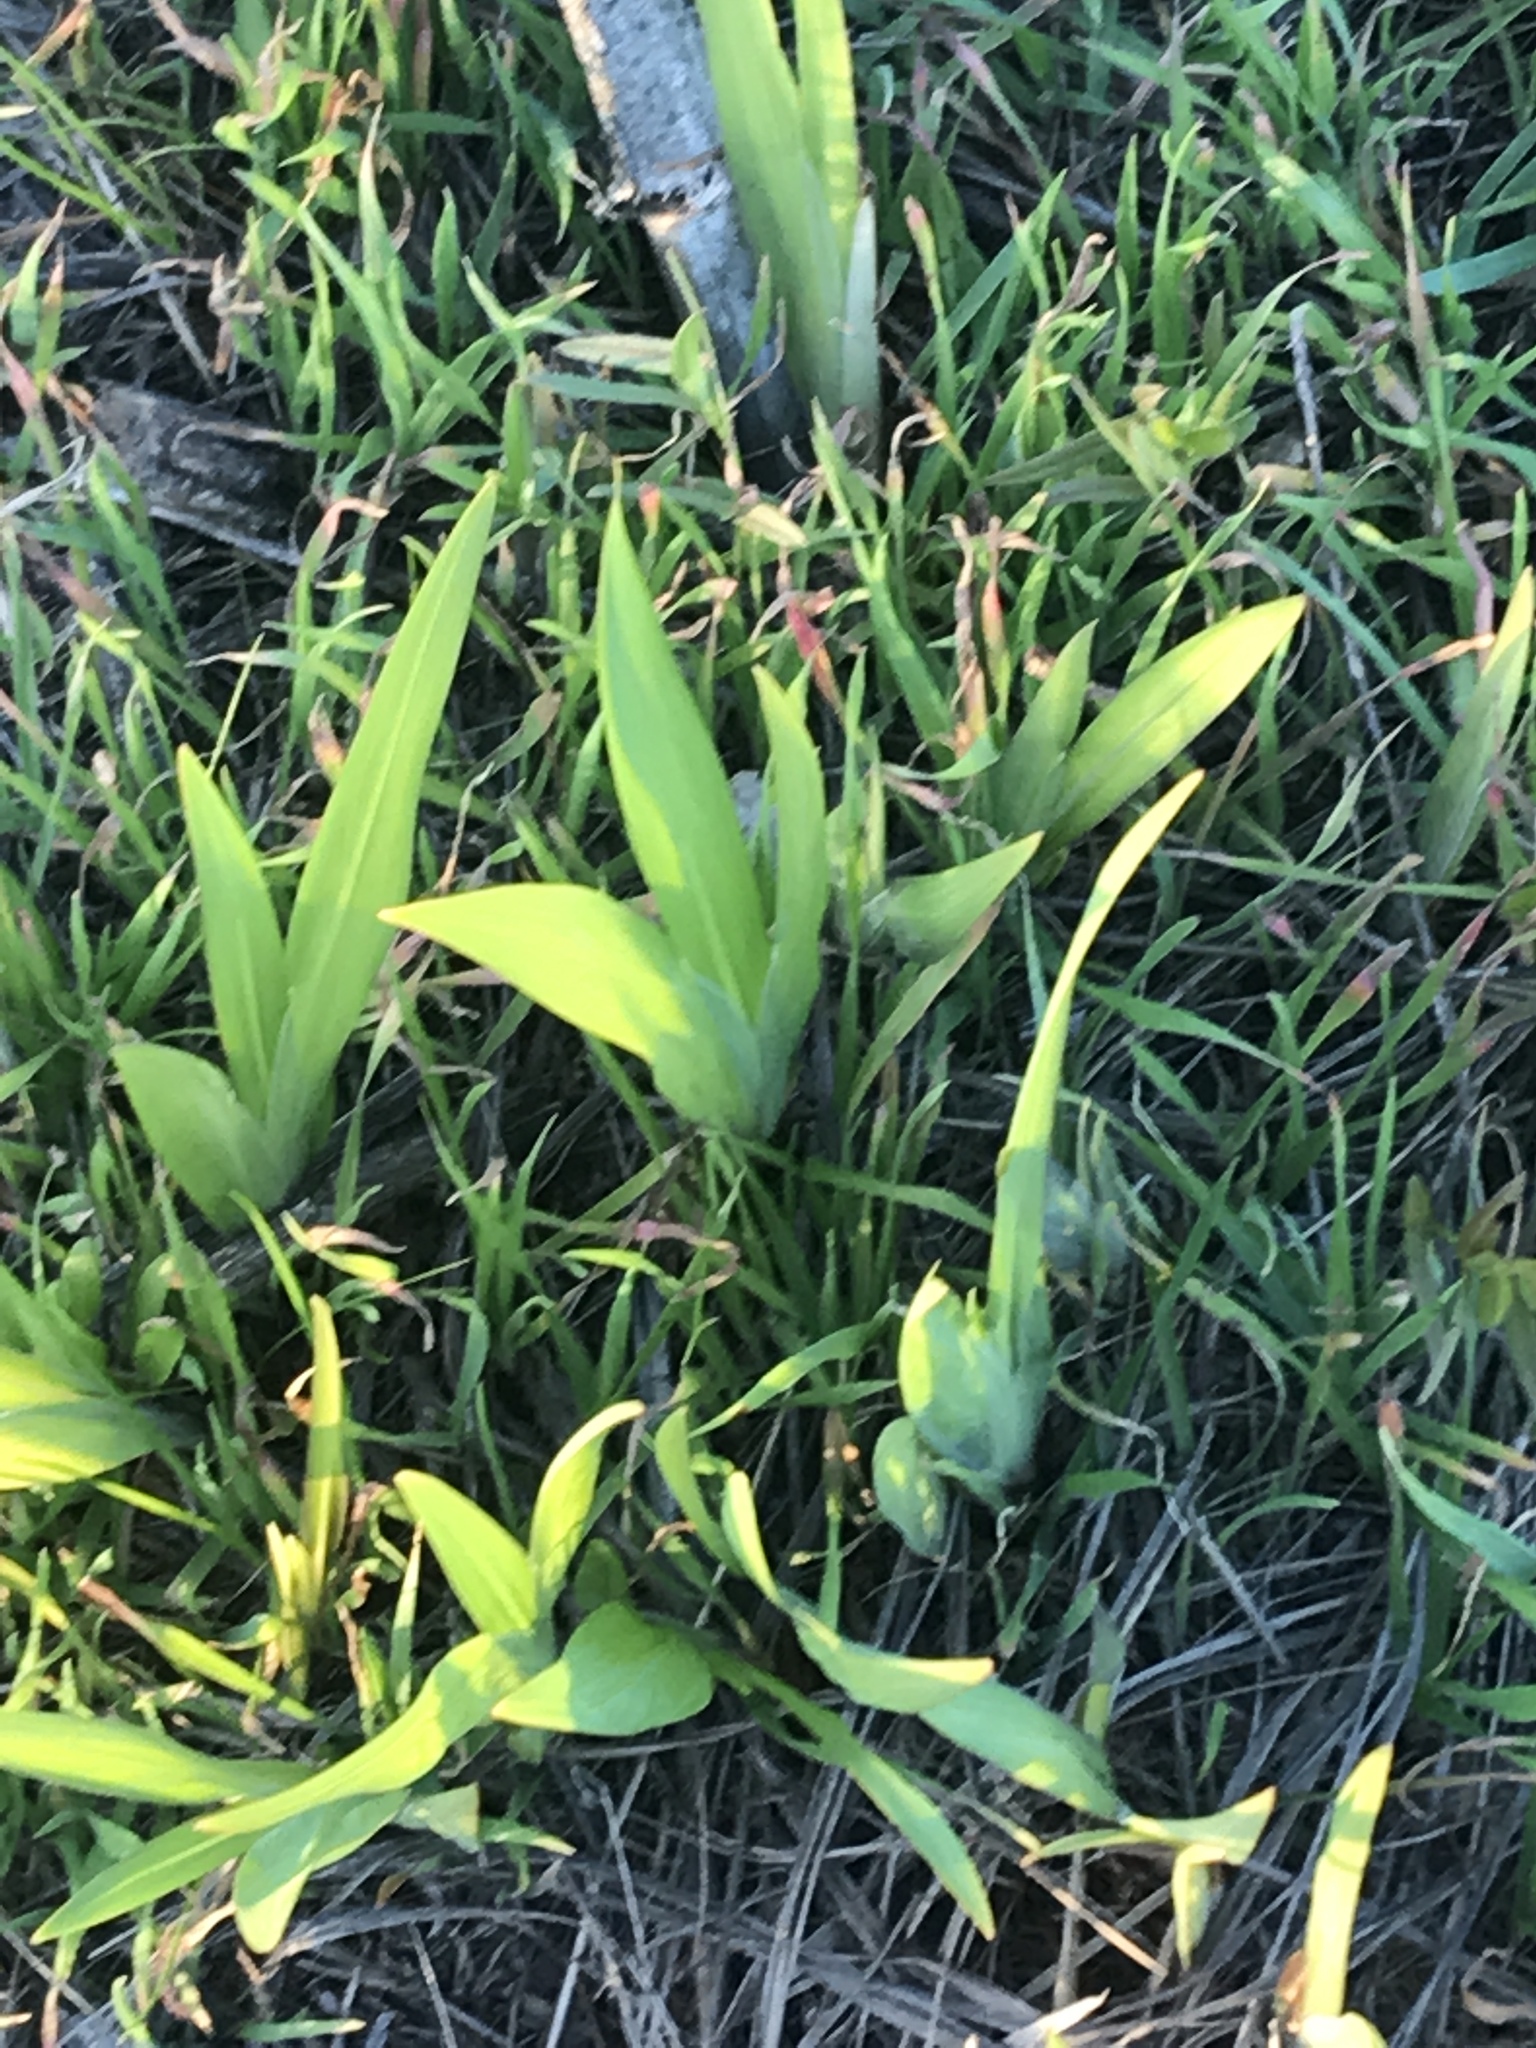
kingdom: Plantae
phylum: Tracheophyta
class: Liliopsida
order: Asparagales
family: Iridaceae
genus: Iris
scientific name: Iris germanica
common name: German iris
